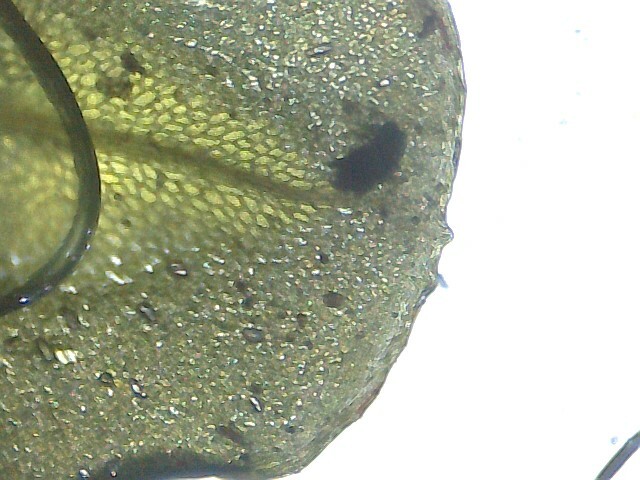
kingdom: Plantae
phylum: Bryophyta
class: Bryopsida
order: Bryales
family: Mniaceae
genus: Rhizomnium
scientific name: Rhizomnium punctatum
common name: Dotted leafy moss
